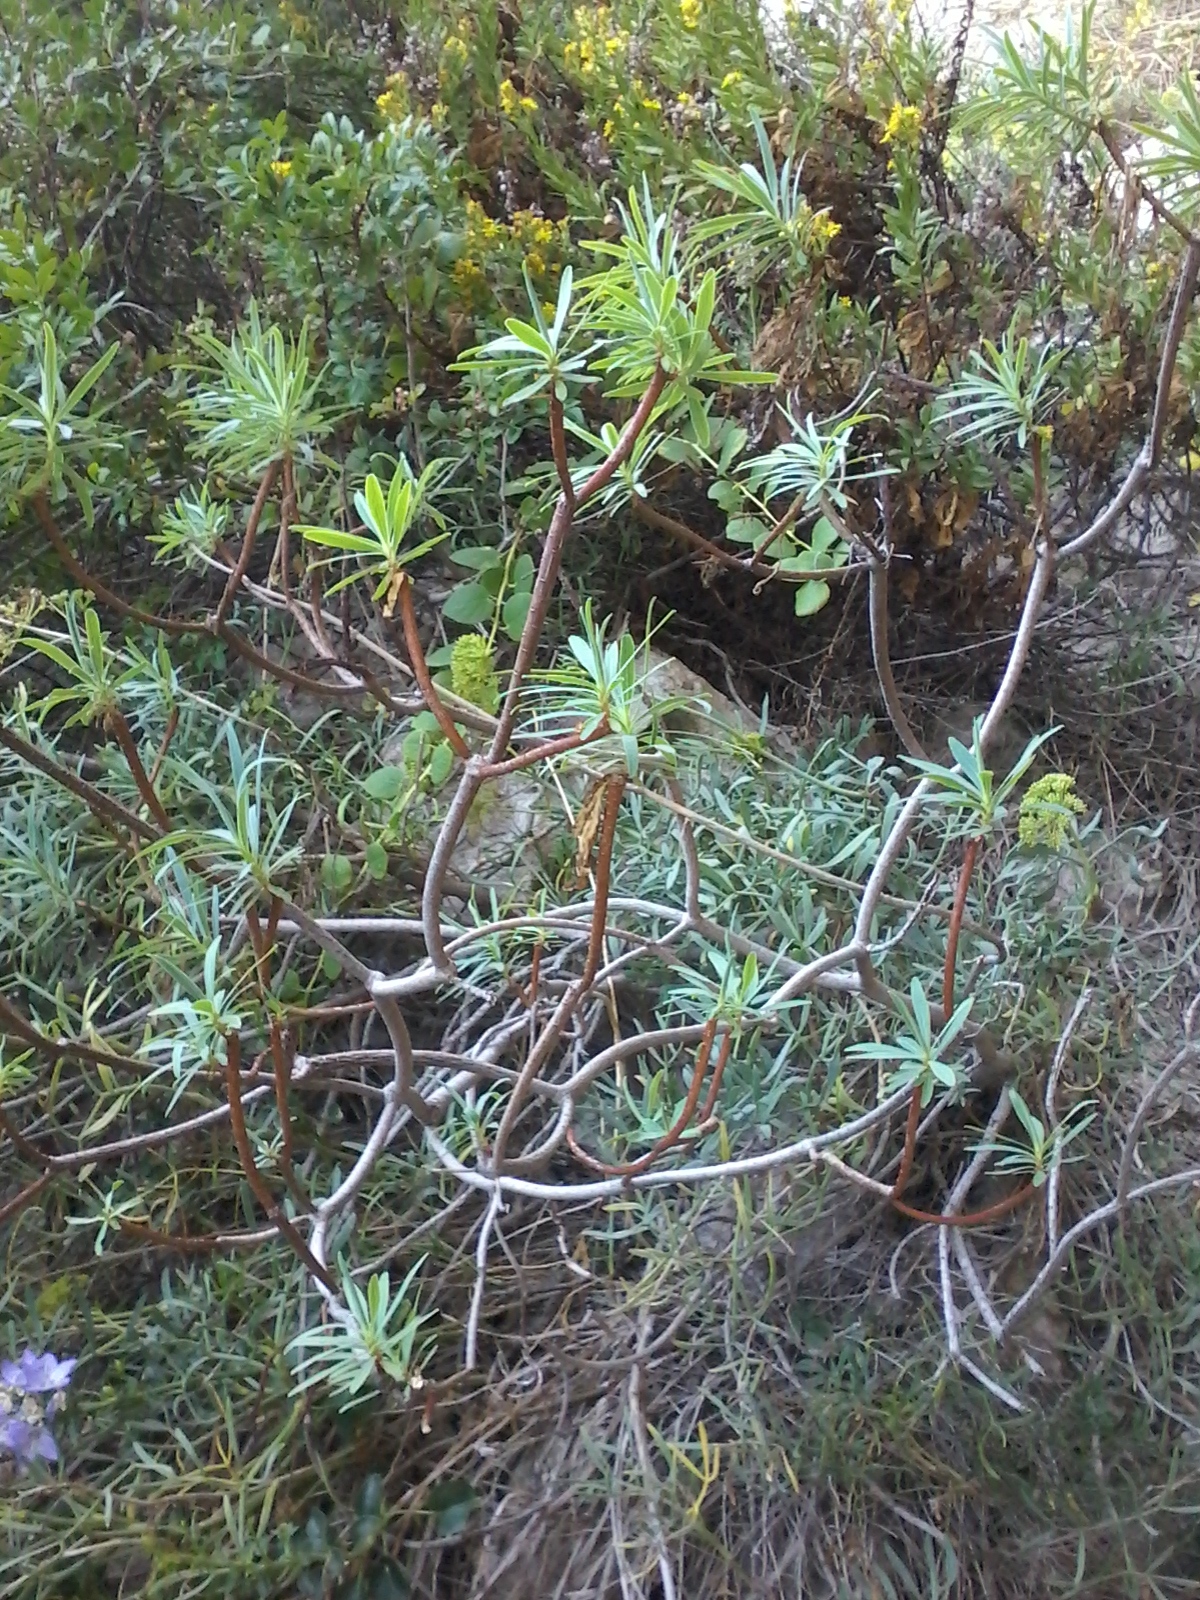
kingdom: Plantae
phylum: Tracheophyta
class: Magnoliopsida
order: Malpighiales
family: Euphorbiaceae
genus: Euphorbia
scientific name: Euphorbia dendroides
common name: Tree spurge
